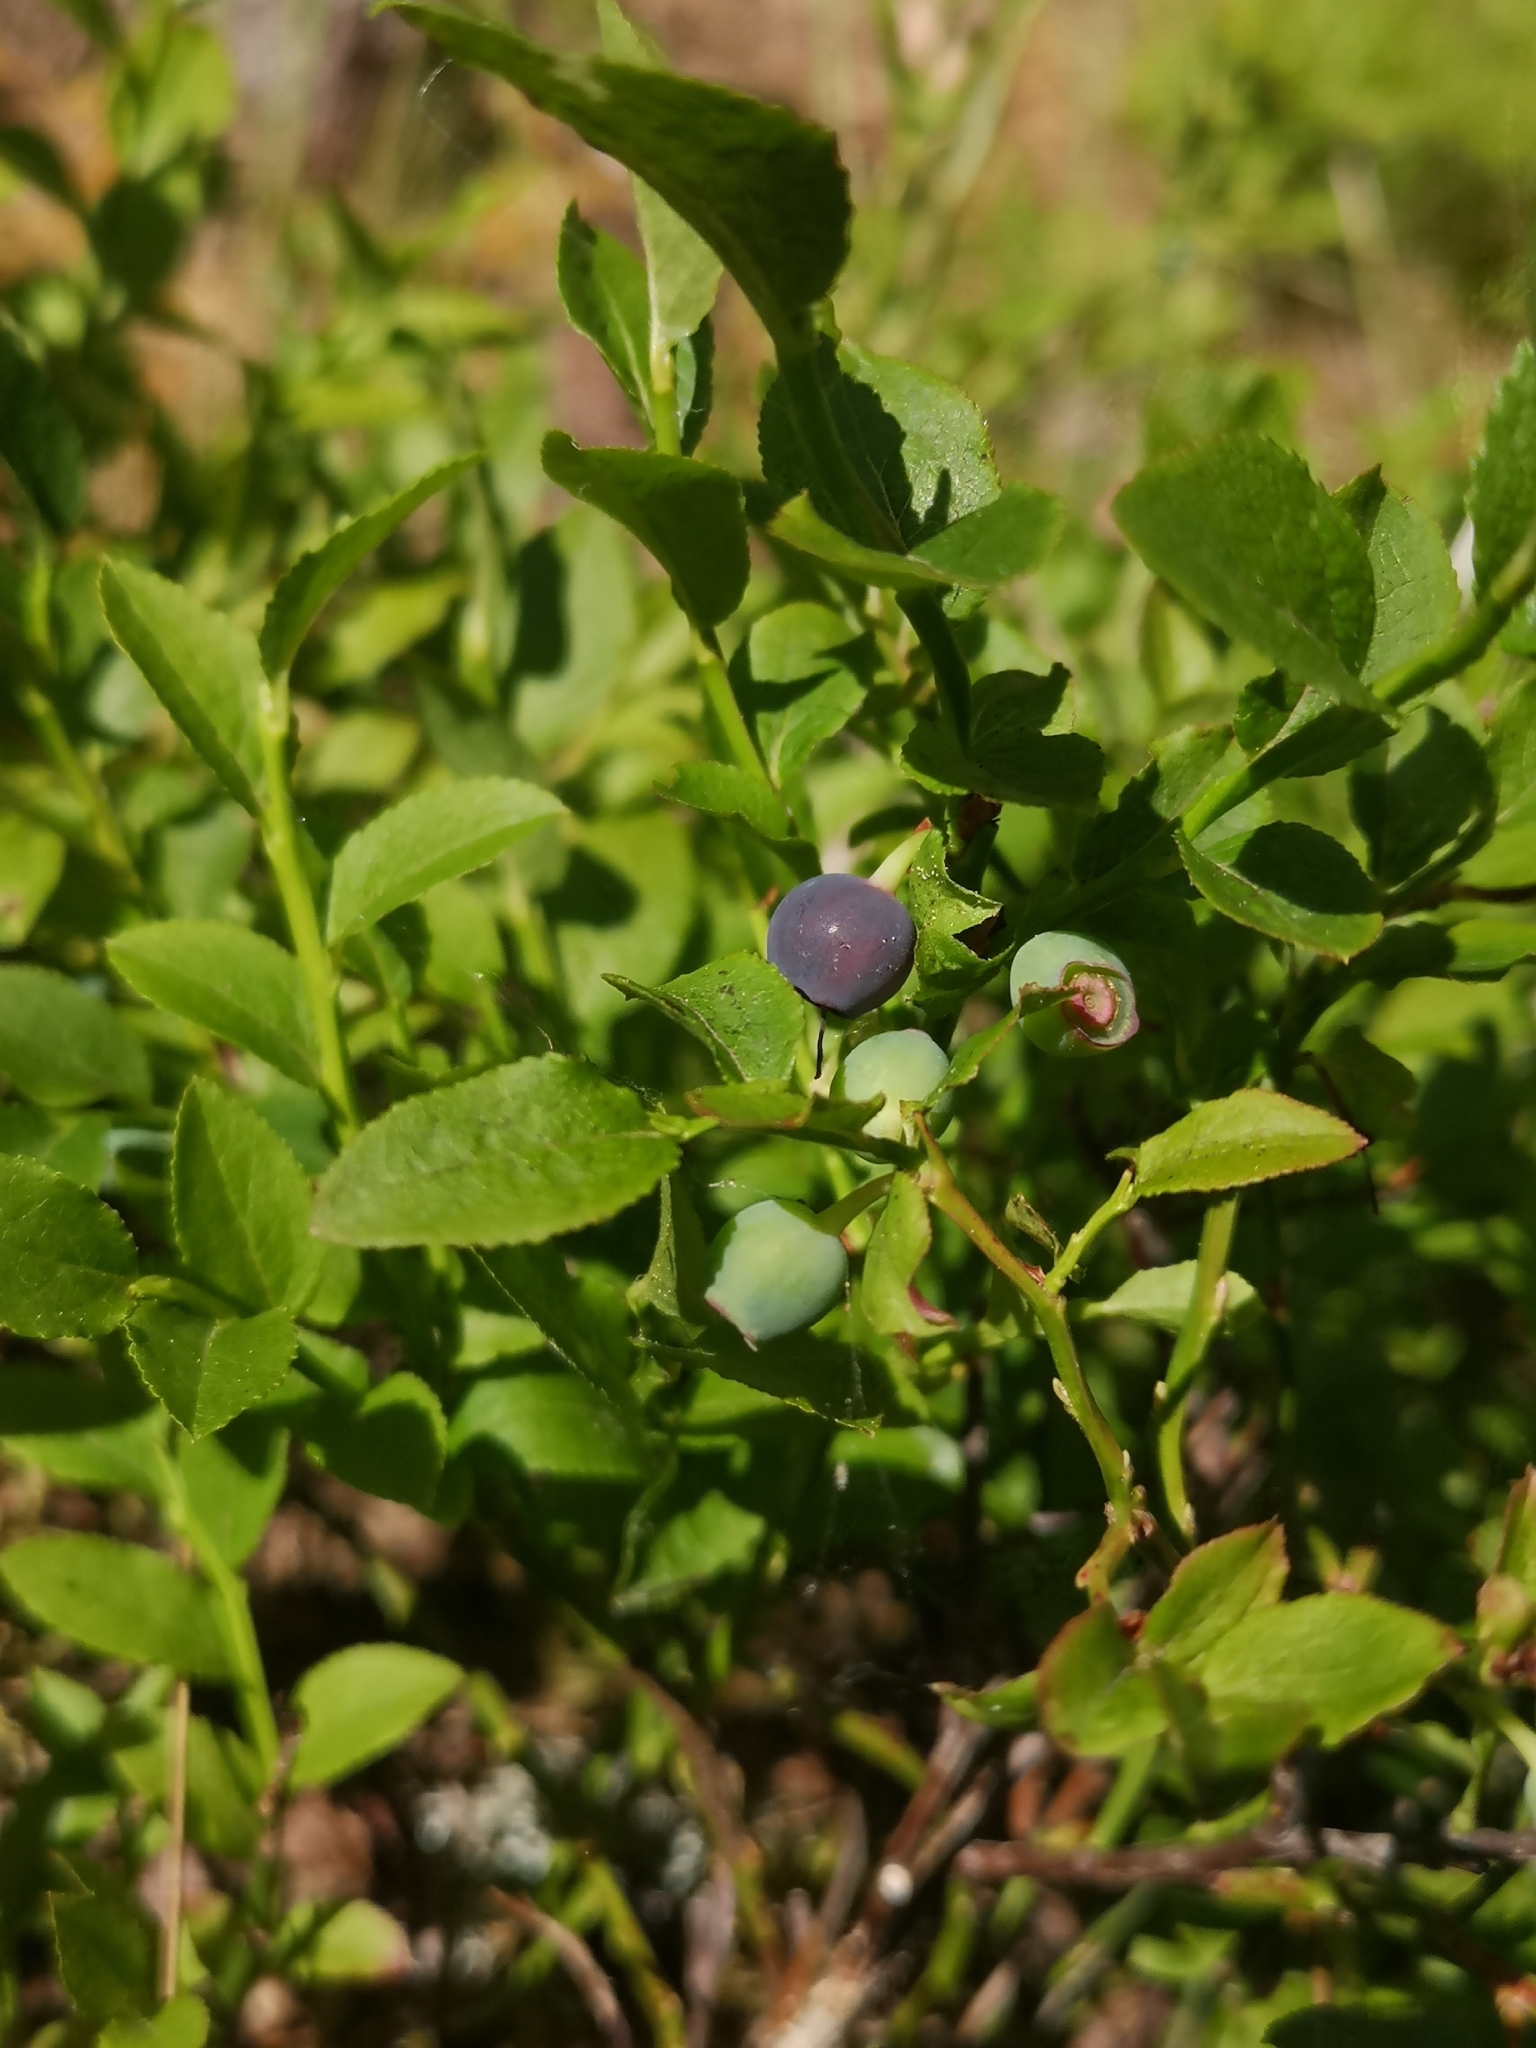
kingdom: Plantae
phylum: Tracheophyta
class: Magnoliopsida
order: Ericales
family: Ericaceae
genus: Vaccinium
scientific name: Vaccinium myrtillus
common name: Bilberry
